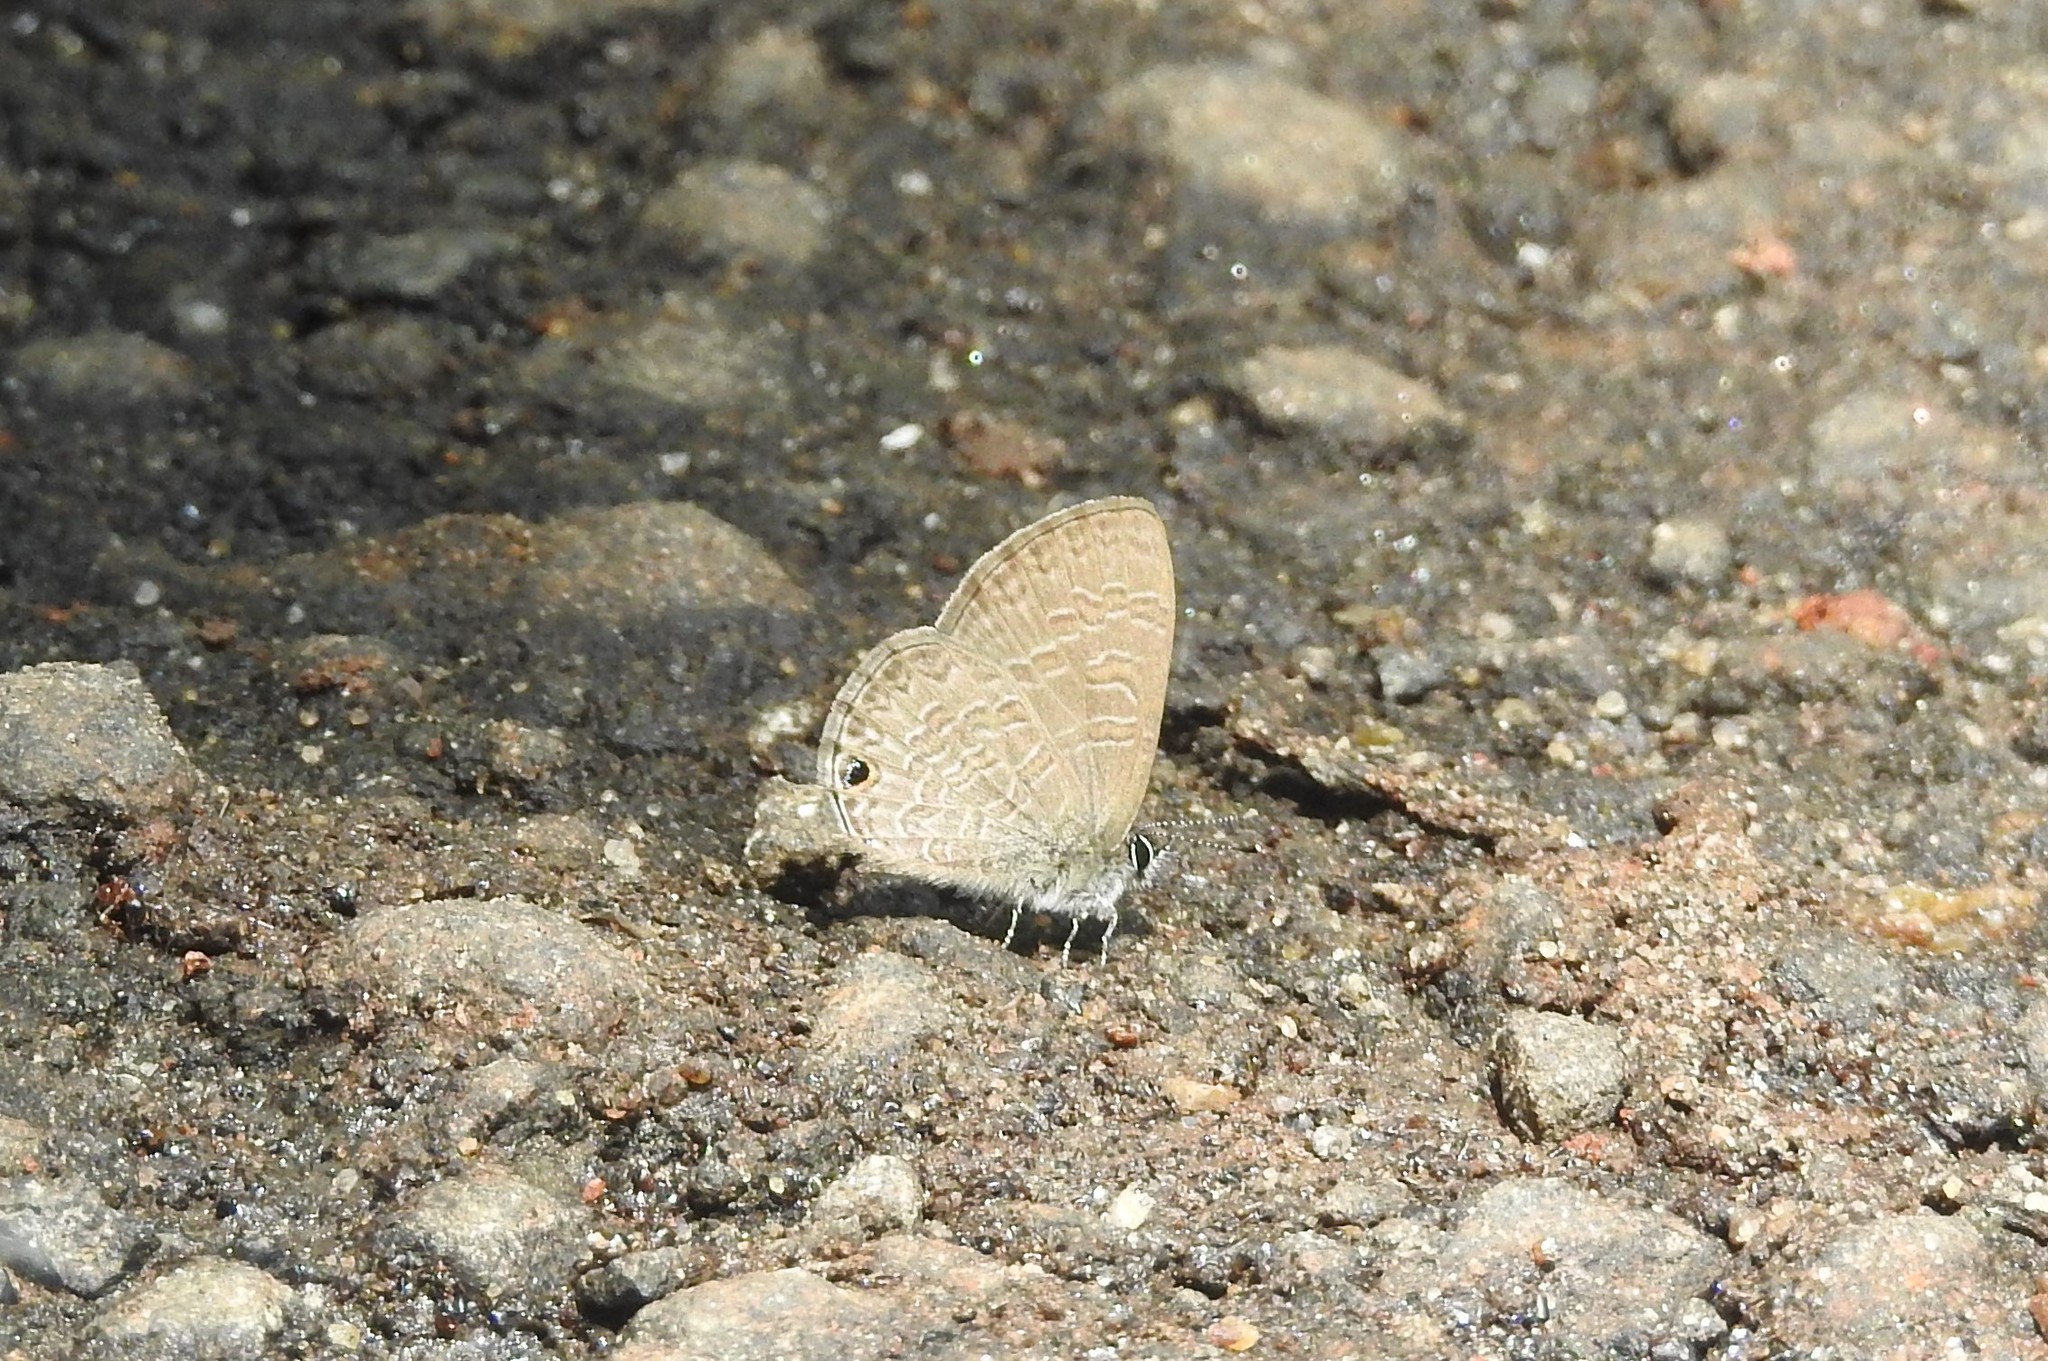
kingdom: Animalia
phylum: Arthropoda
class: Insecta
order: Lepidoptera
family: Lycaenidae
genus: Prosotas
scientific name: Prosotas dubiosa
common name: Tailless lineblue
